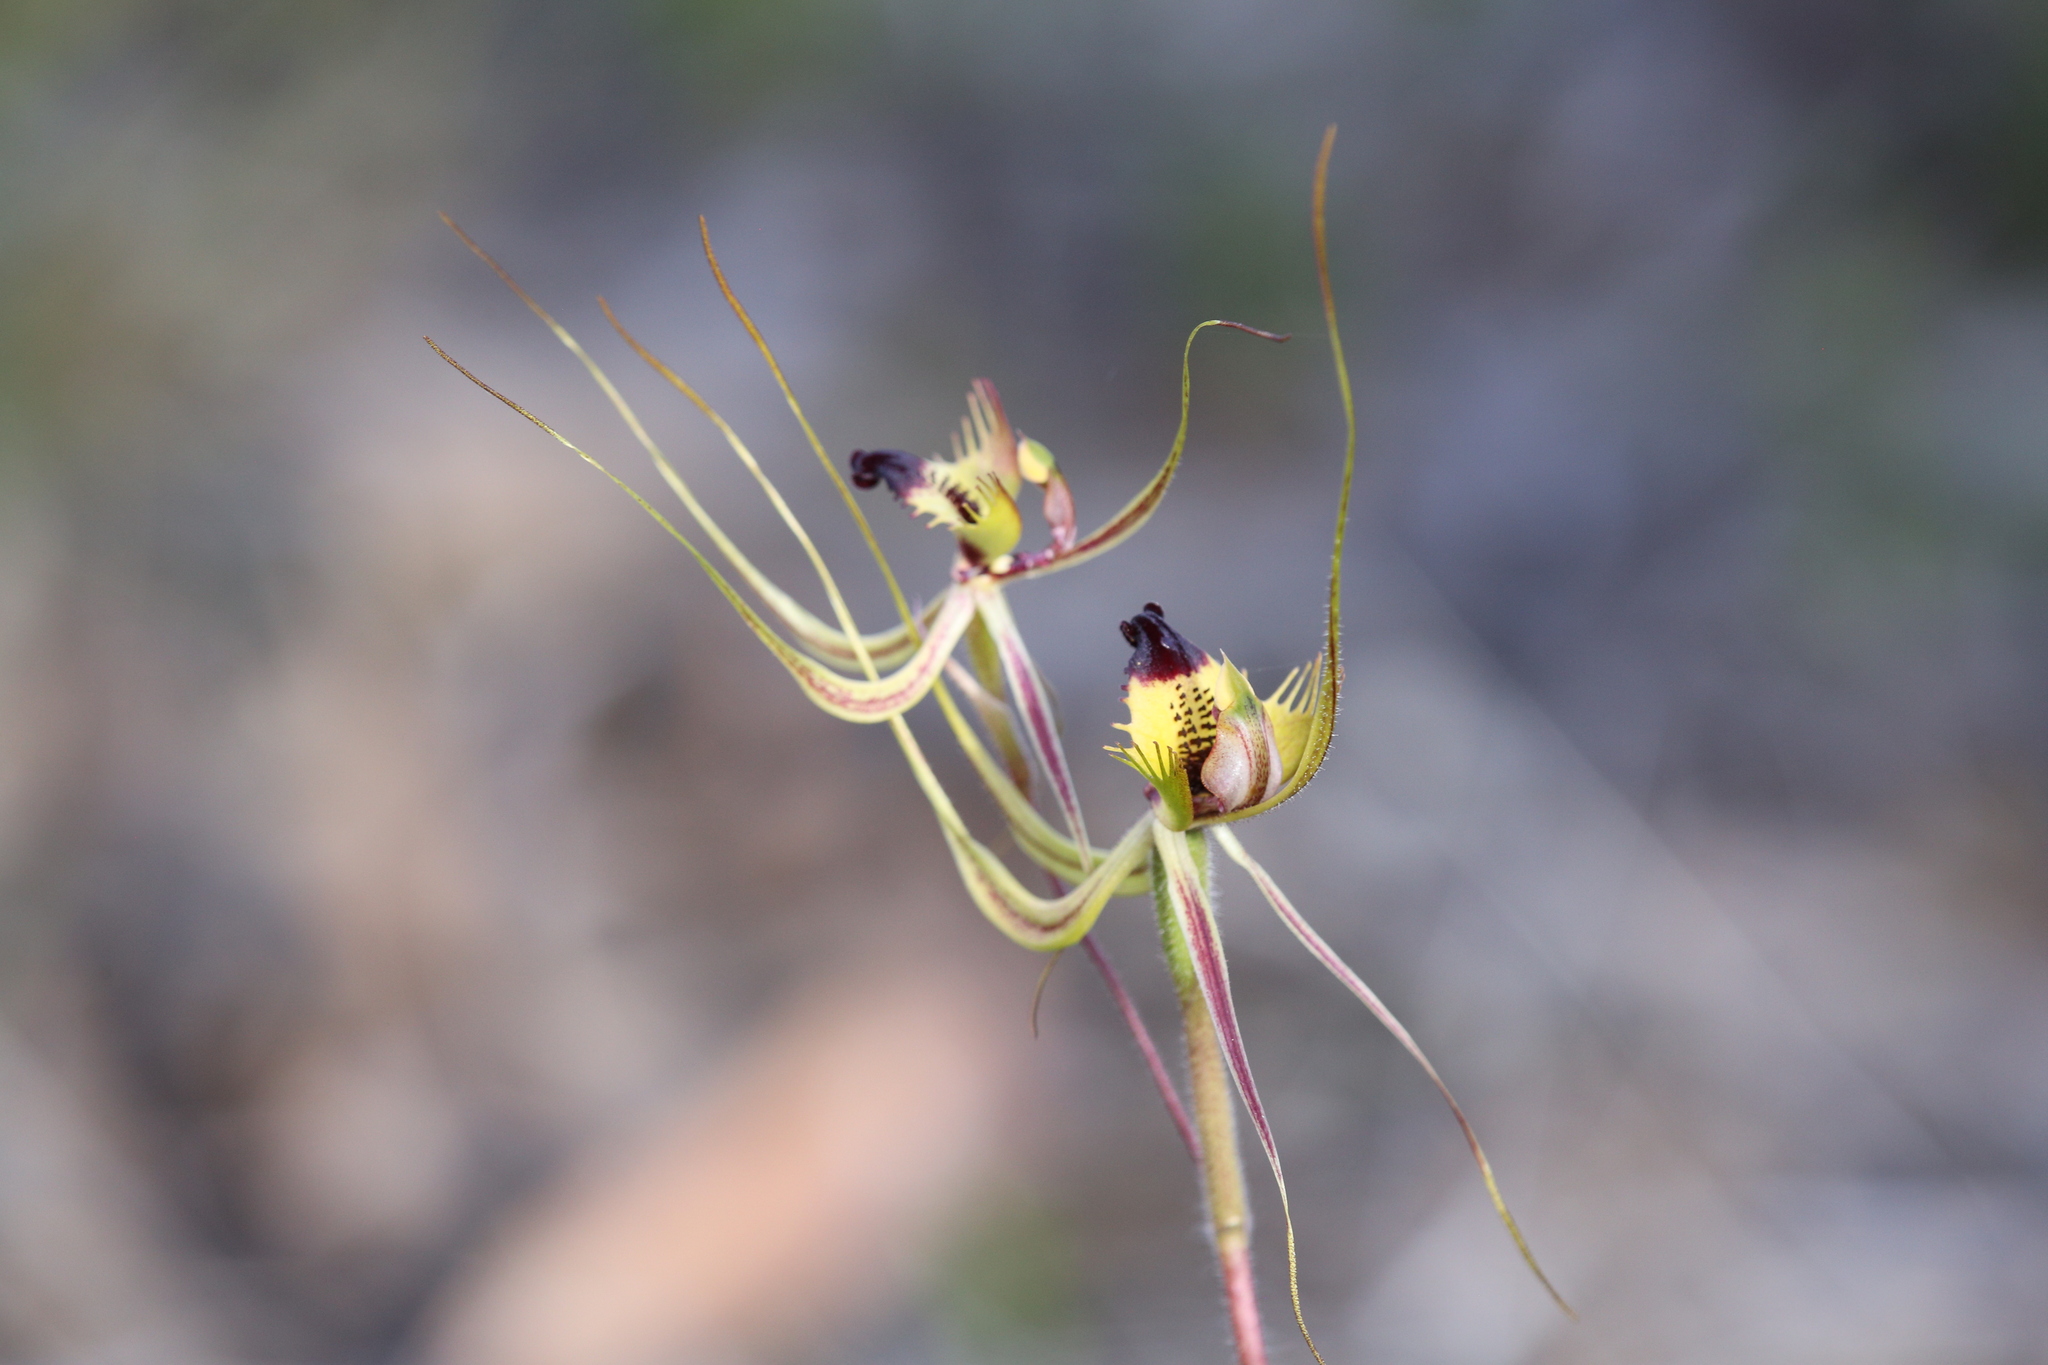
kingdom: Plantae
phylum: Tracheophyta
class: Liliopsida
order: Asparagales
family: Orchidaceae
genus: Caladenia
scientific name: Caladenia falcata
